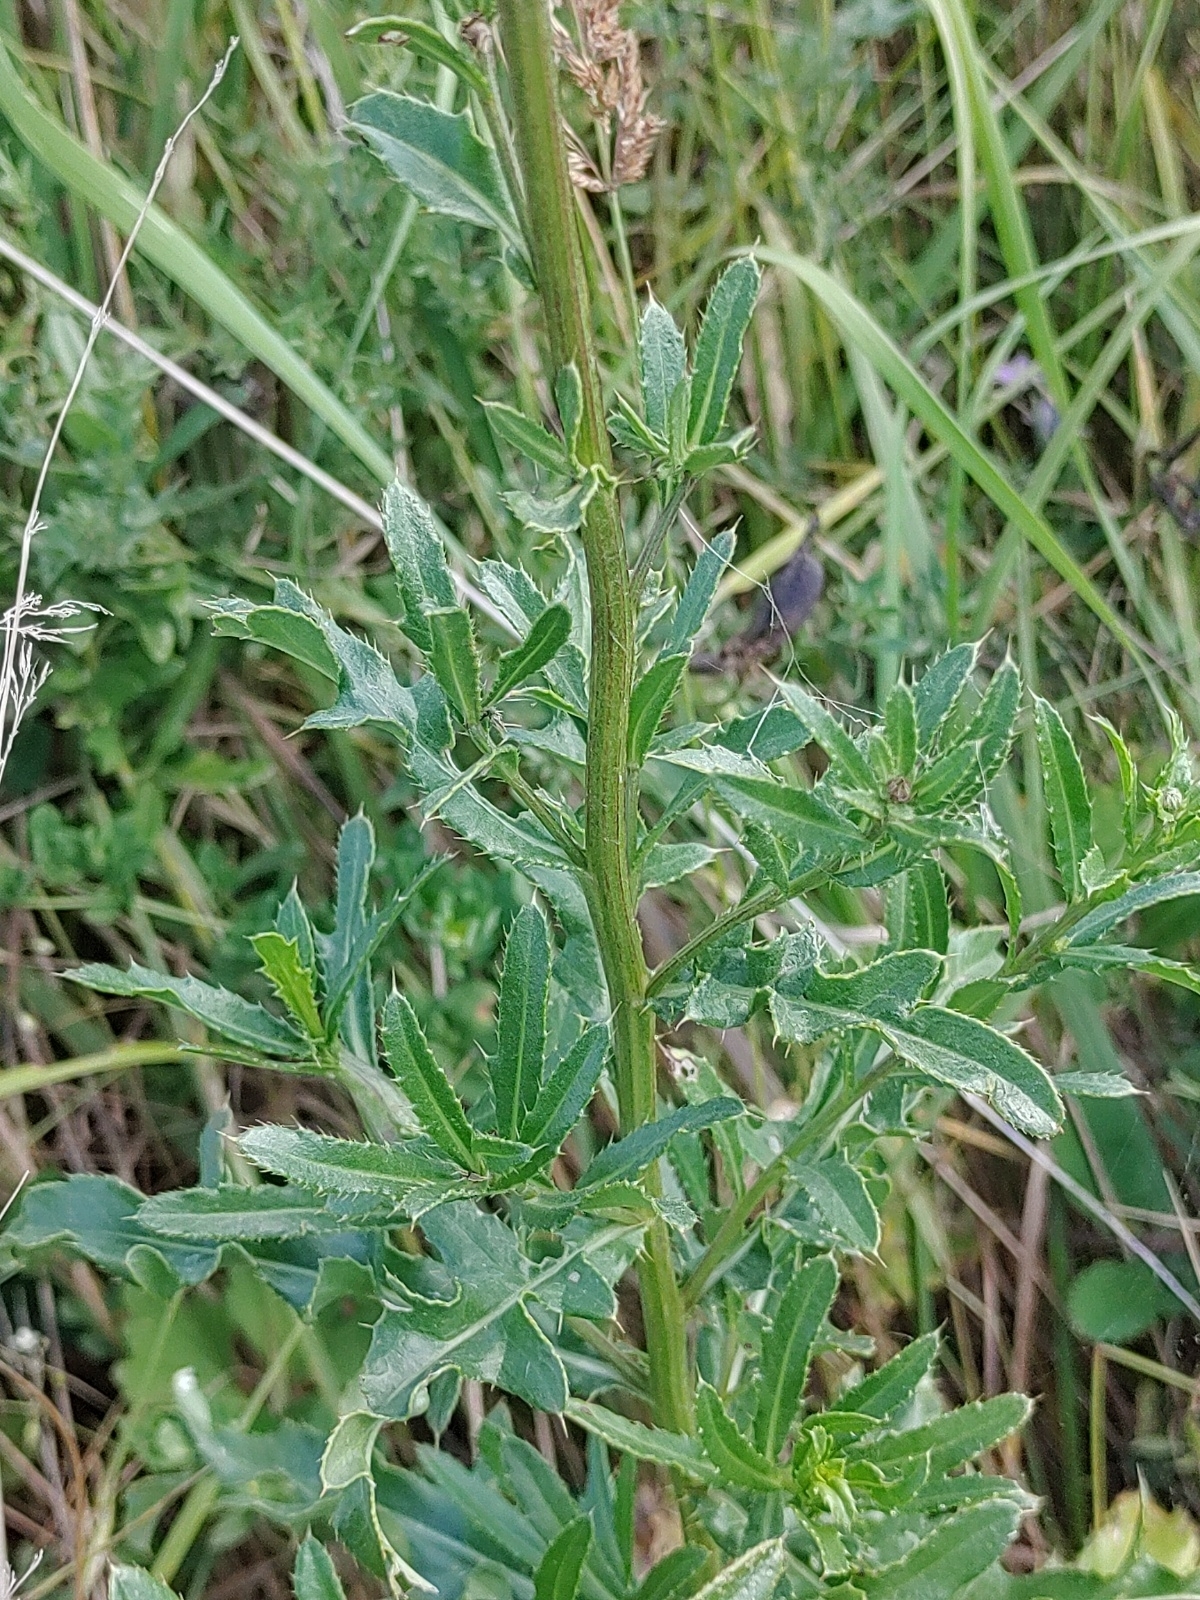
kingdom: Plantae
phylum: Tracheophyta
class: Magnoliopsida
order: Asterales
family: Asteraceae
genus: Cirsium
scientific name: Cirsium arvense
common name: Creeping thistle
